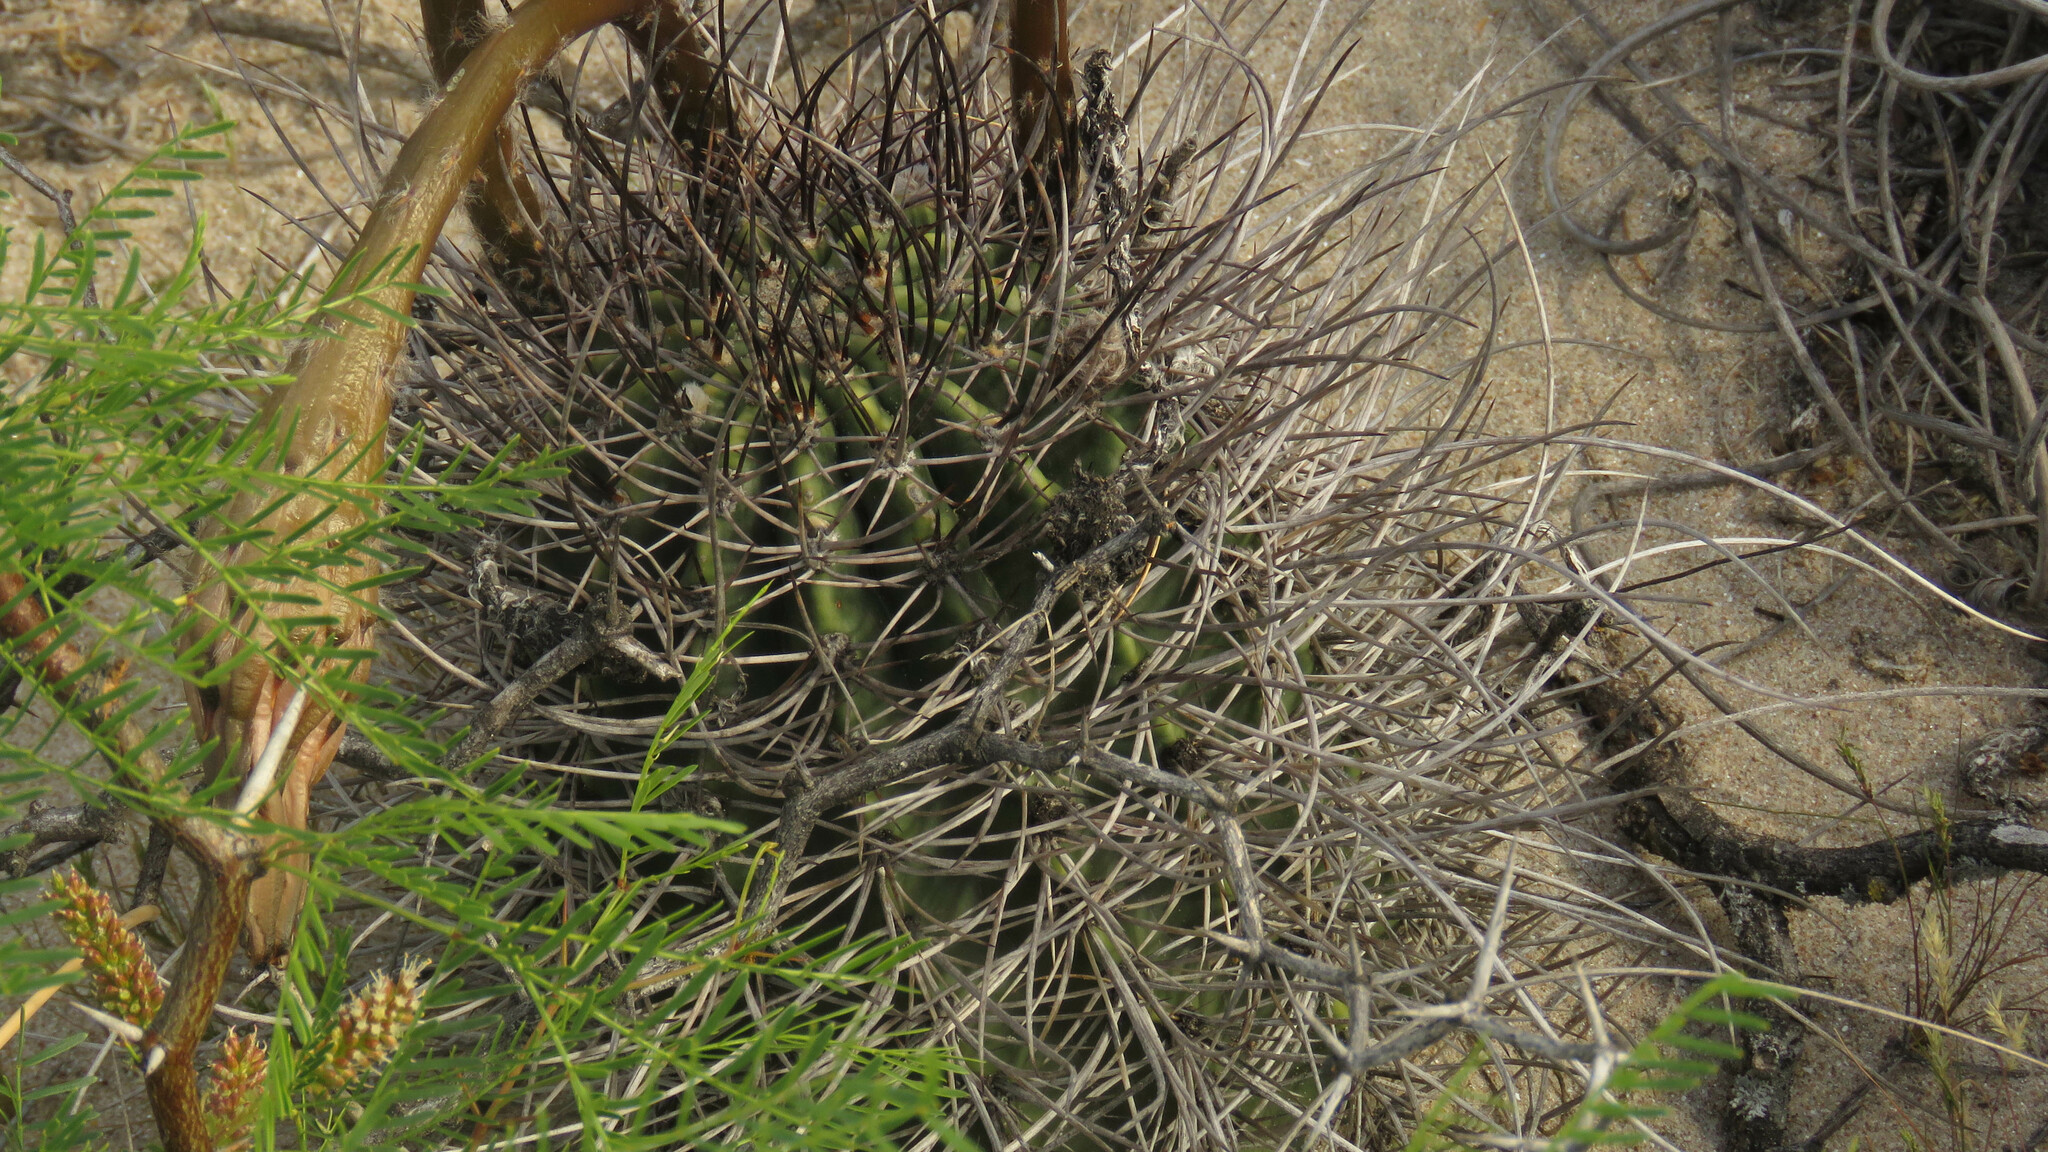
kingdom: Plantae
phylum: Tracheophyta
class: Magnoliopsida
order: Caryophyllales
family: Cactaceae
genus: Acanthocalycium
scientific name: Acanthocalycium leucanthum
